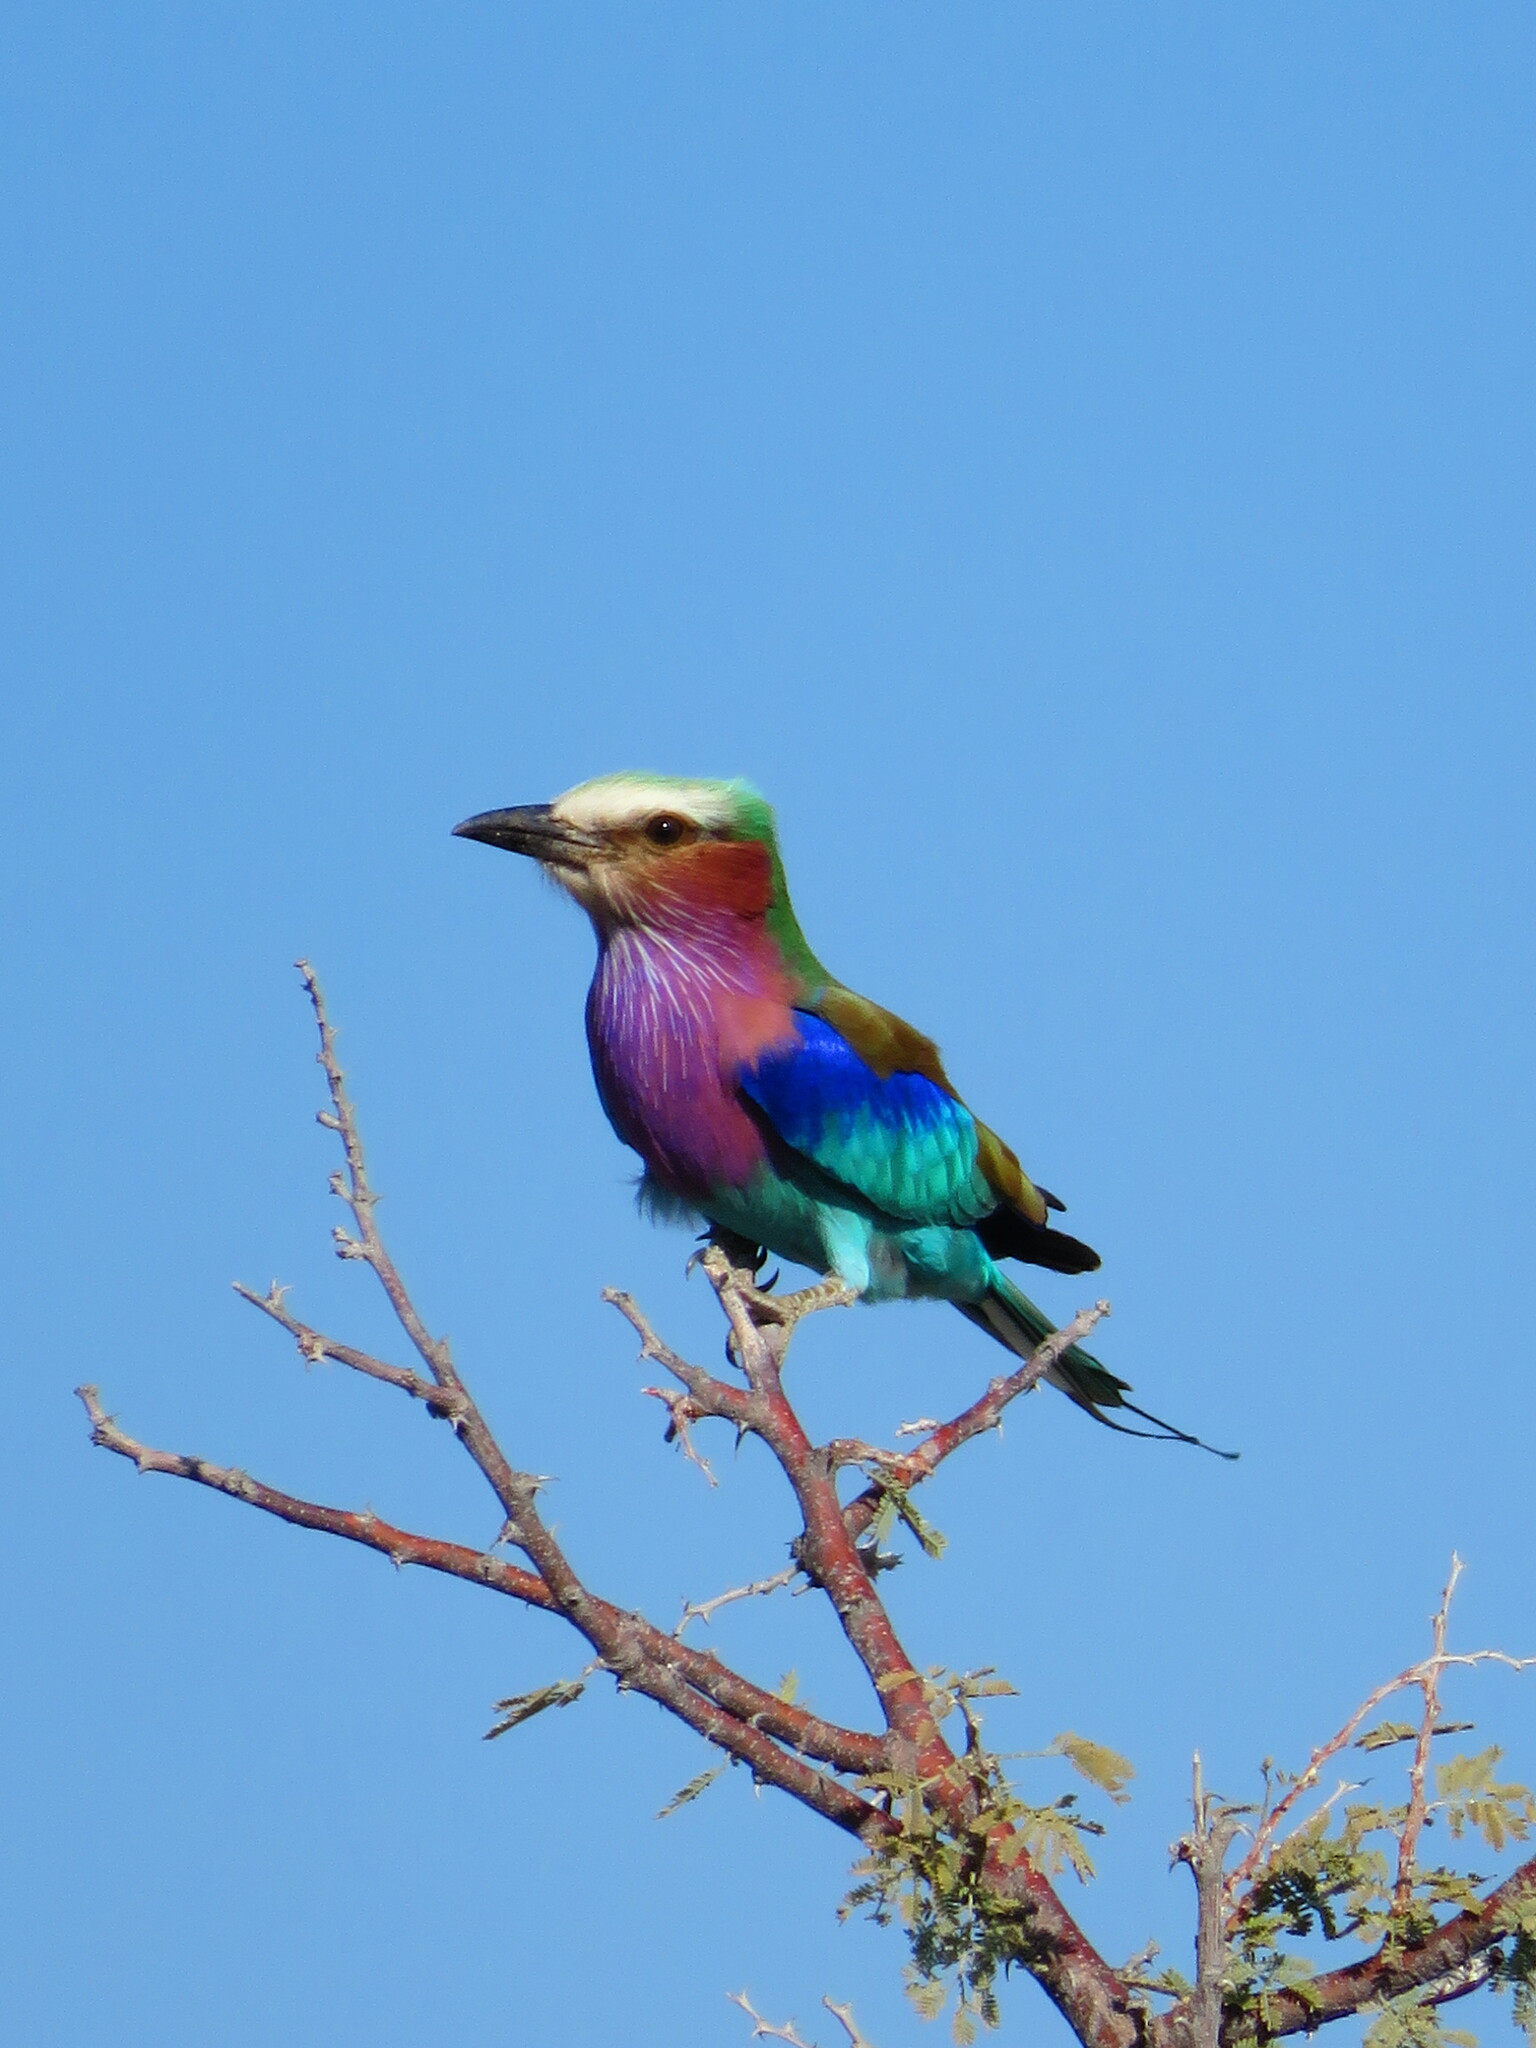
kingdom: Animalia
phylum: Chordata
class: Aves
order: Coraciiformes
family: Coraciidae
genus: Coracias
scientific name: Coracias caudatus
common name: Lilac-breasted roller
